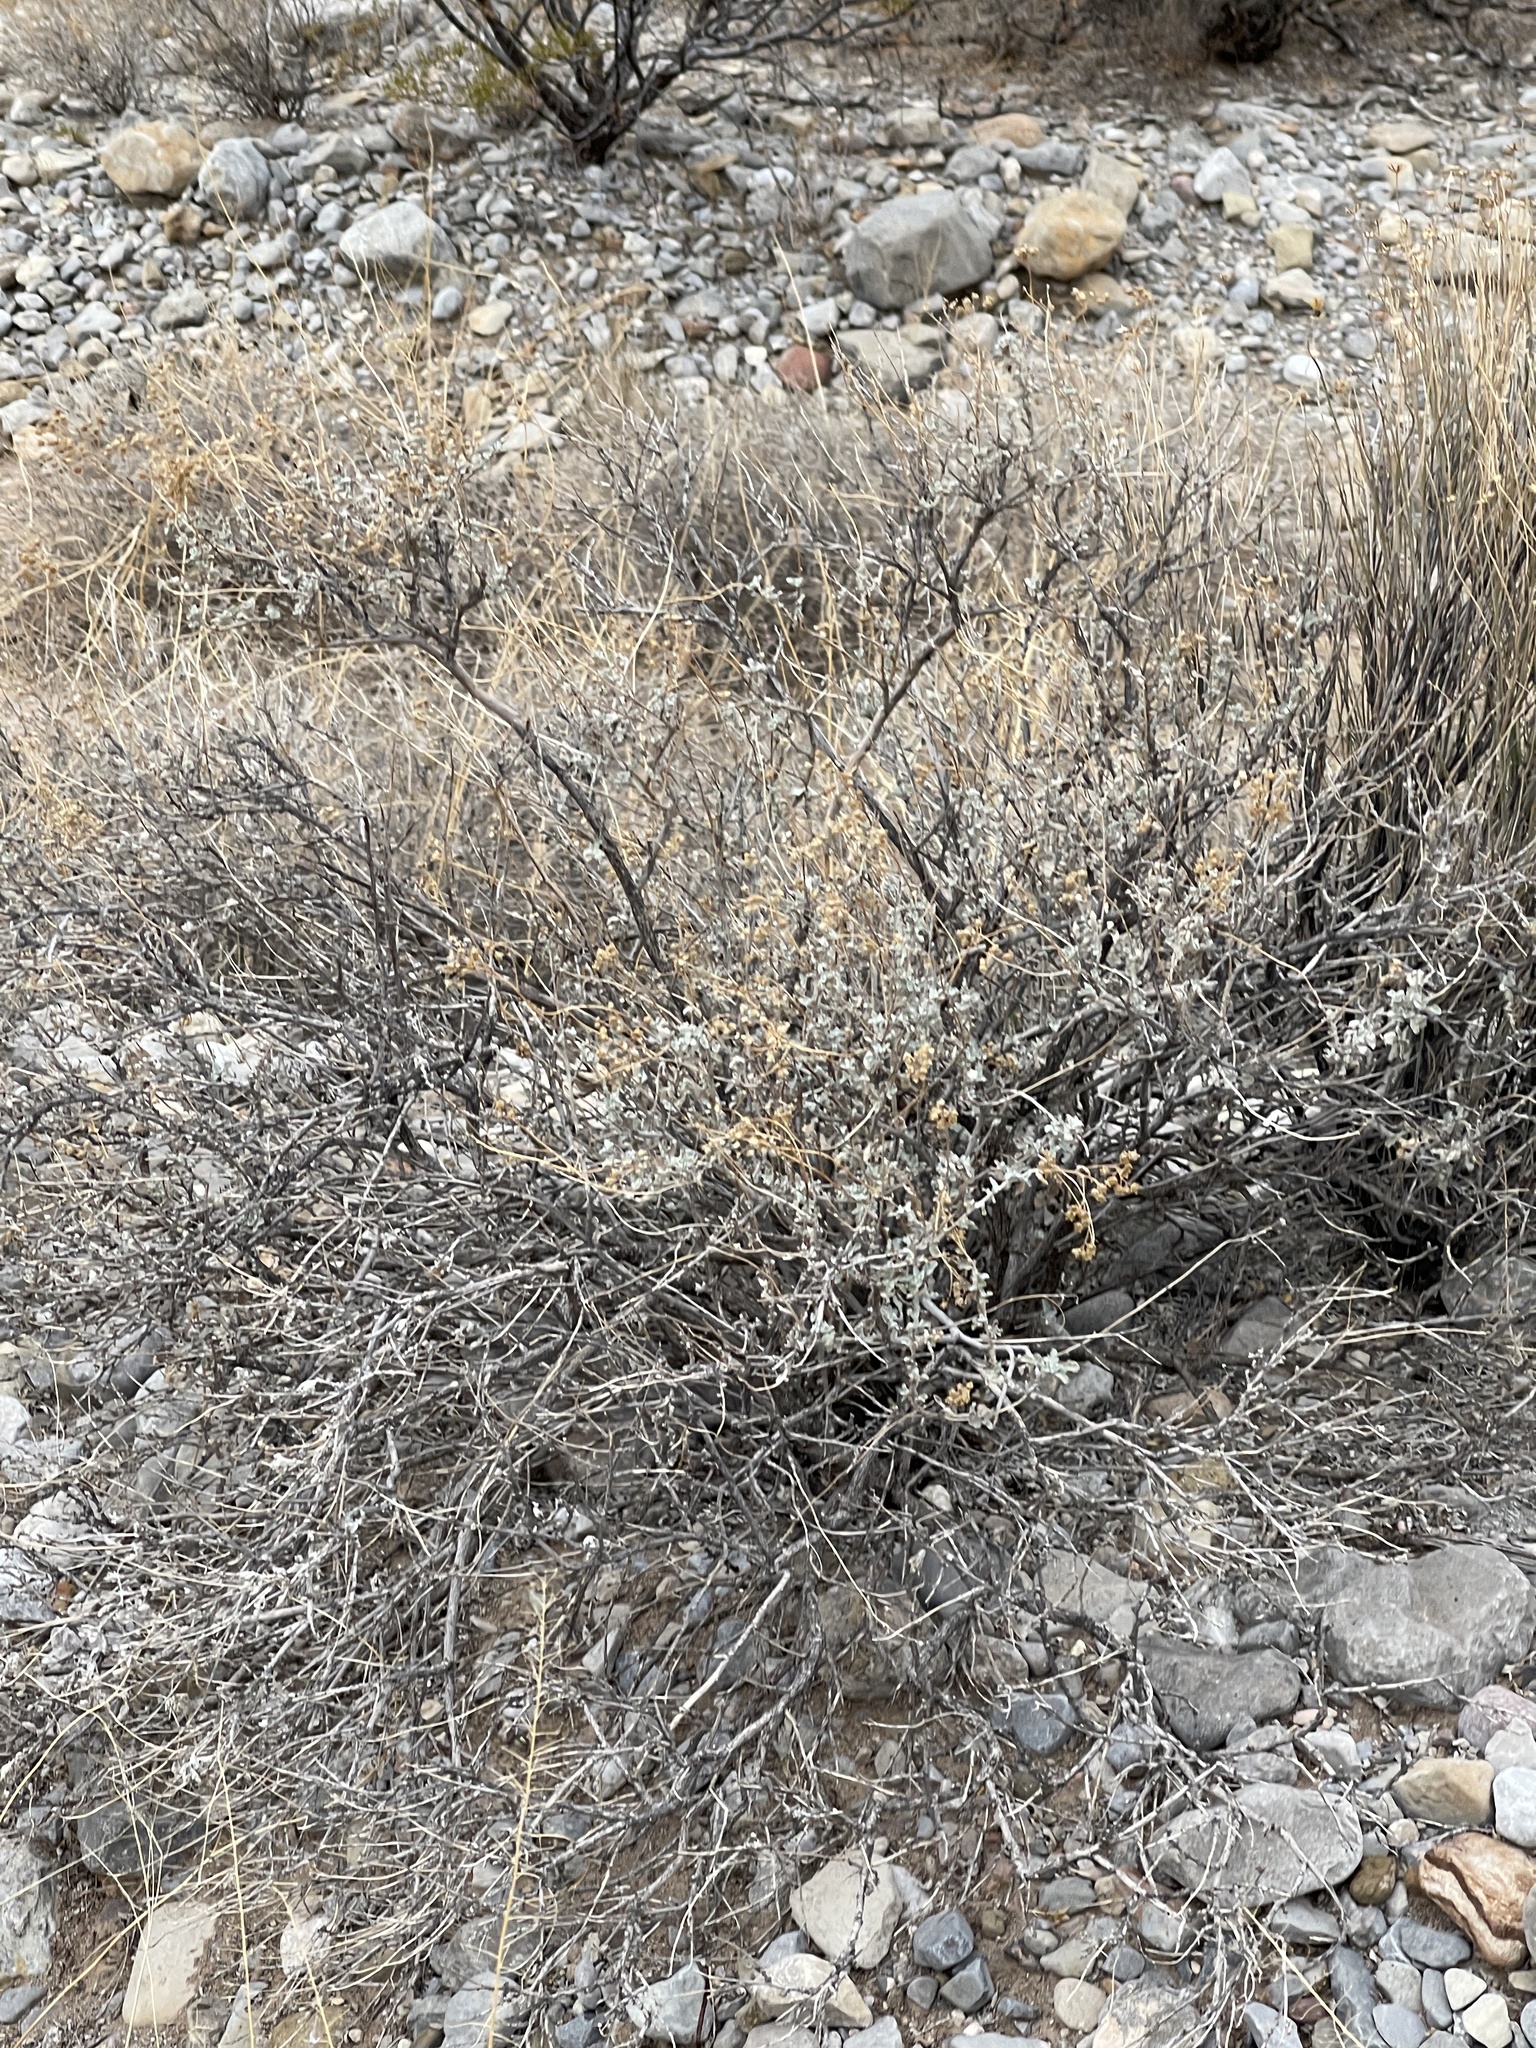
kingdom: Plantae
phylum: Tracheophyta
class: Magnoliopsida
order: Asterales
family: Asteraceae
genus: Parthenium
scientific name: Parthenium incanum
